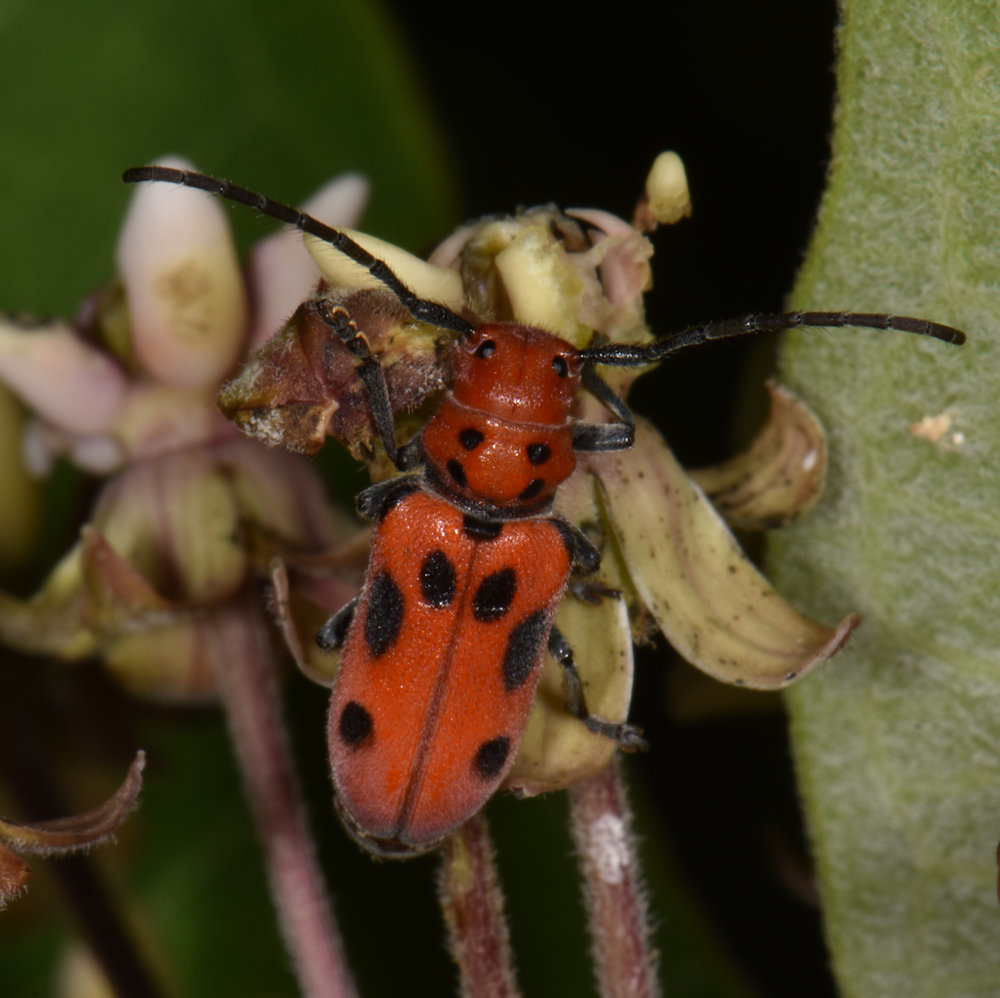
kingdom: Animalia
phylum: Arthropoda
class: Insecta
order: Coleoptera
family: Cerambycidae
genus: Tetraopes
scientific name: Tetraopes tetrophthalmus
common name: Red milkweed beetle
